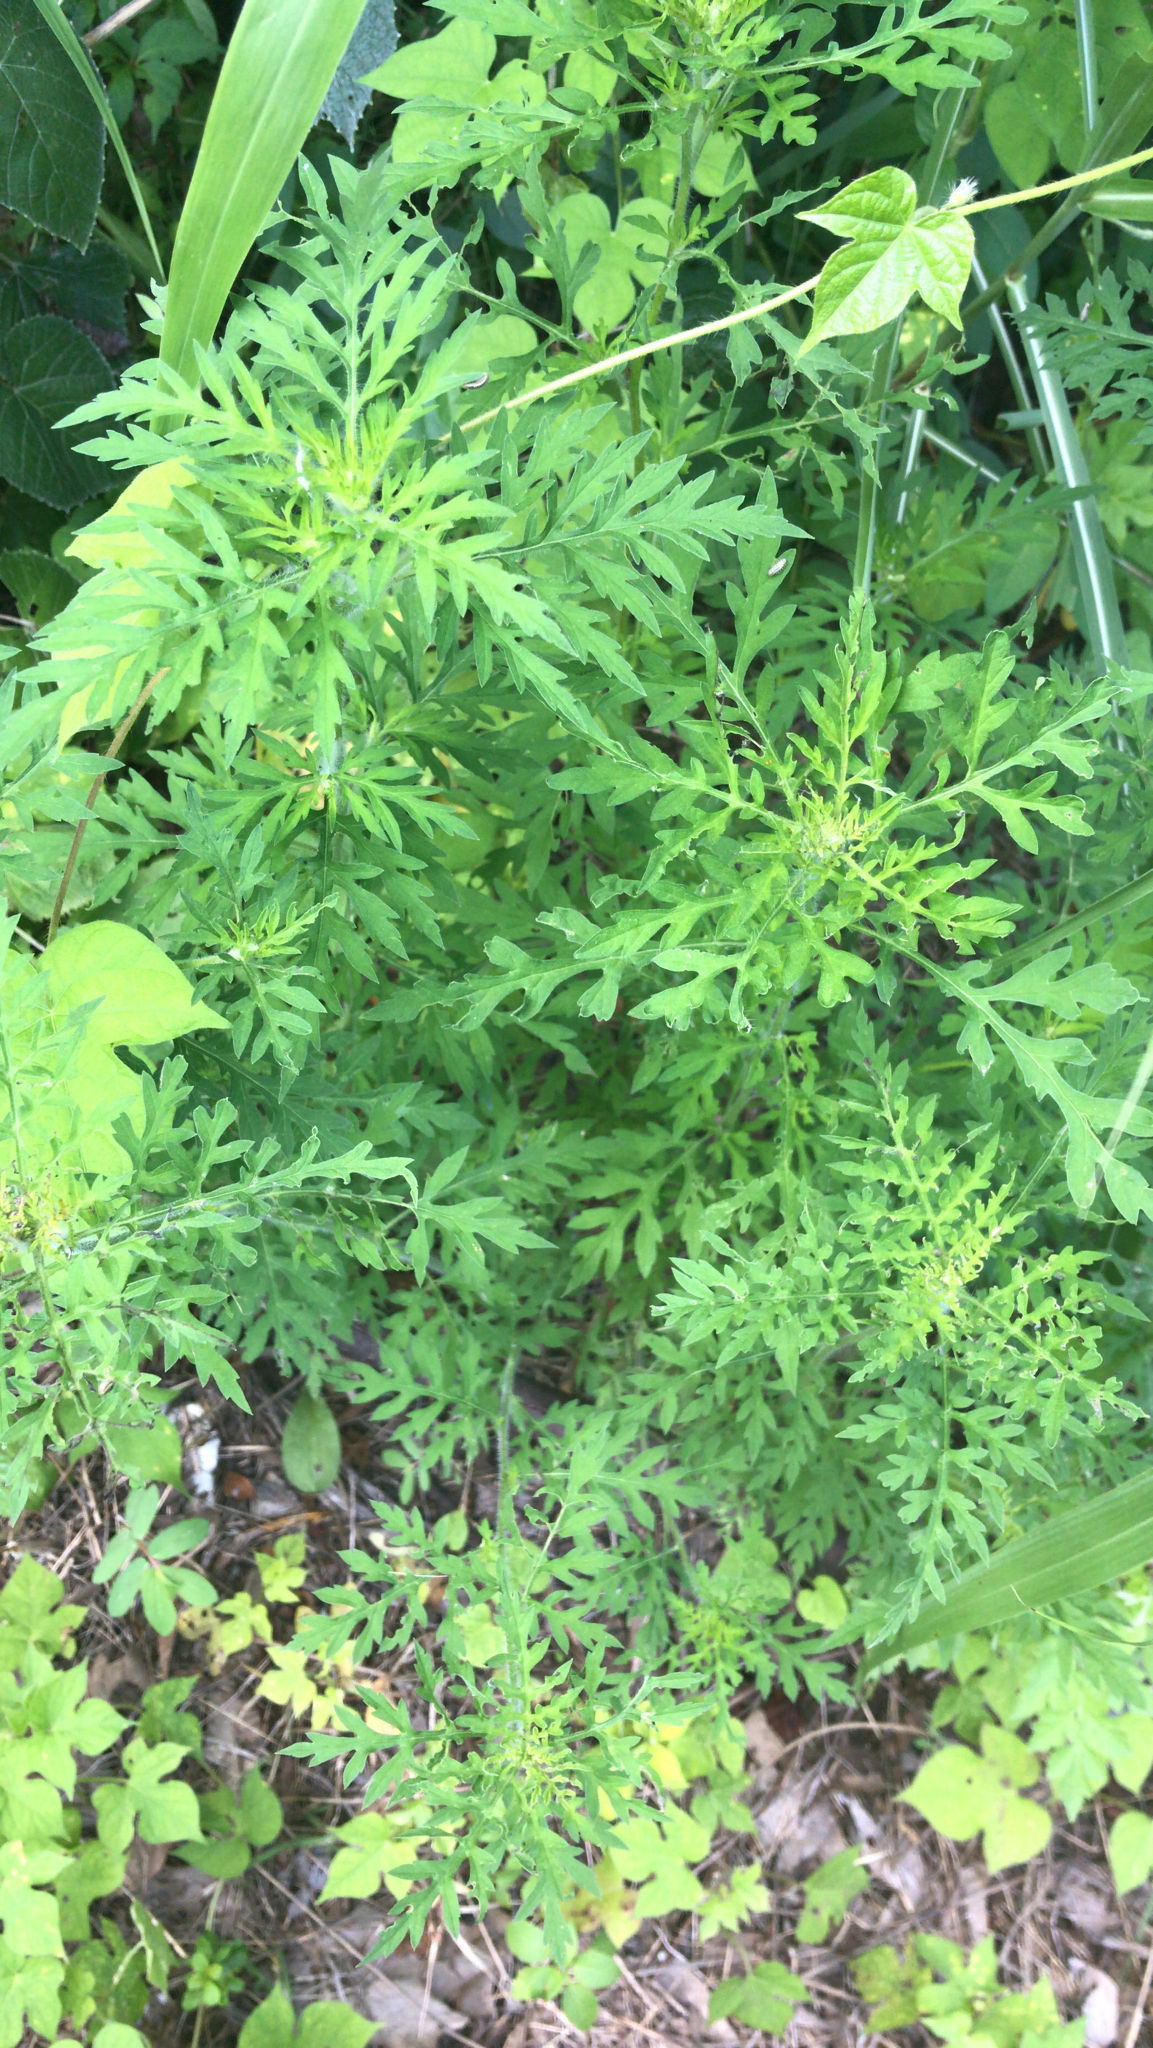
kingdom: Plantae
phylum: Tracheophyta
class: Magnoliopsida
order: Asterales
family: Asteraceae
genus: Ambrosia
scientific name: Ambrosia artemisiifolia
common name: Annual ragweed
